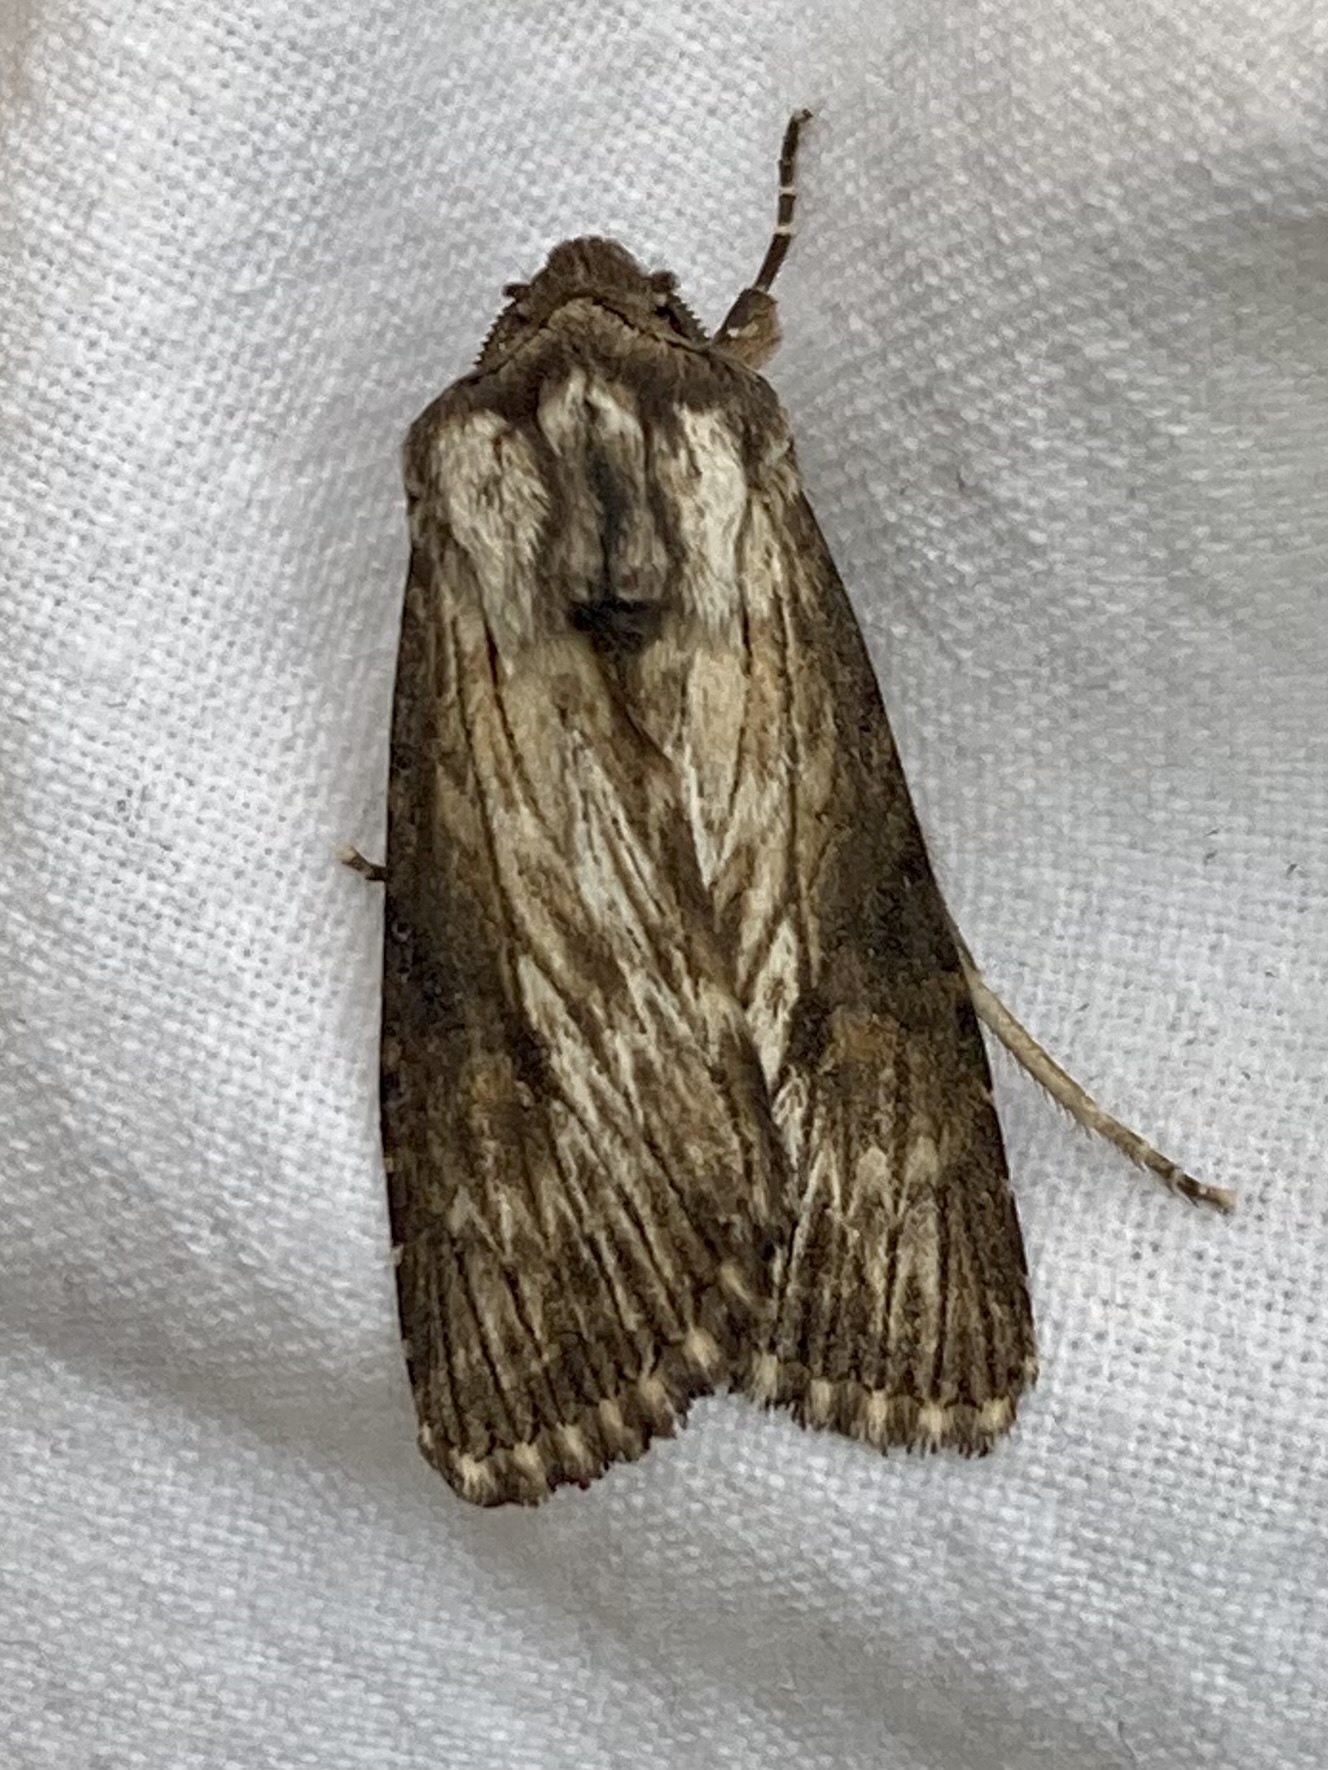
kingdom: Animalia
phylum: Arthropoda
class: Insecta
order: Lepidoptera
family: Noctuidae
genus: Aporophyla
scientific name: Aporophyla australis
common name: Feathered brindle
